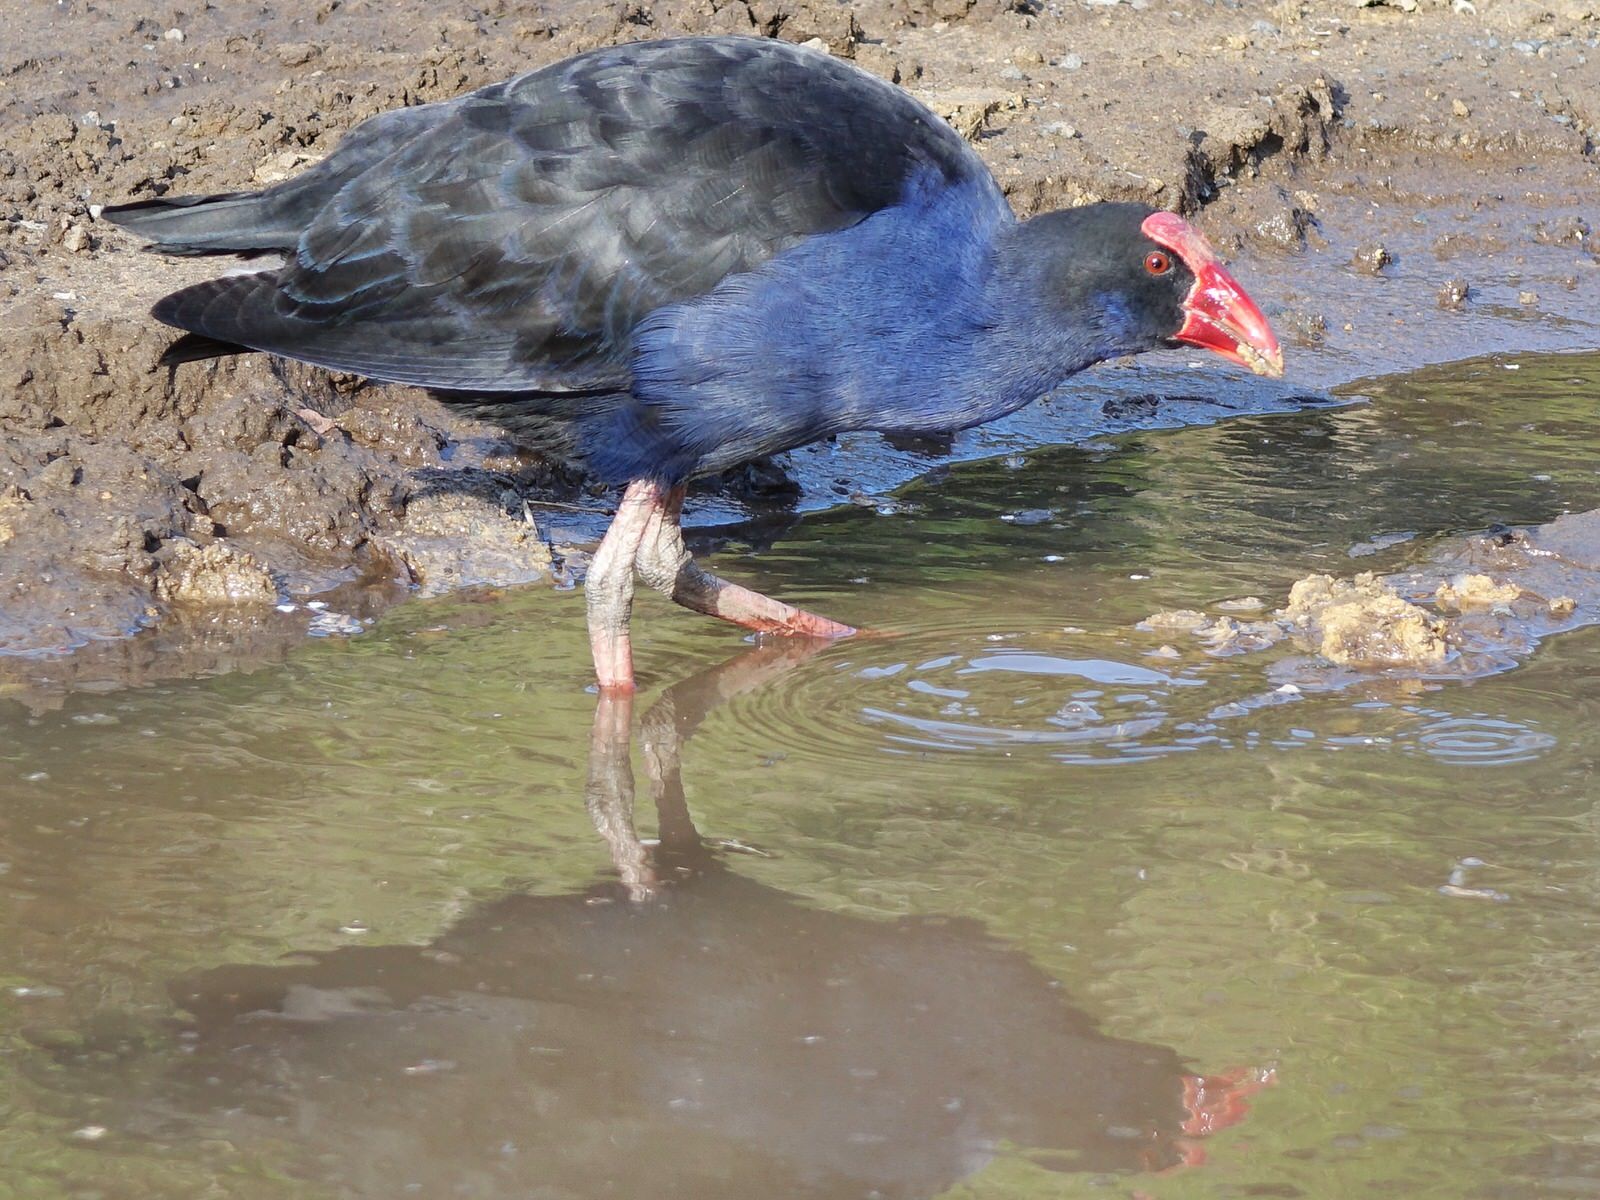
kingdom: Animalia
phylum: Chordata
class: Aves
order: Gruiformes
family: Rallidae
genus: Porphyrio
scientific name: Porphyrio melanotus
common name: Australasian swamphen
